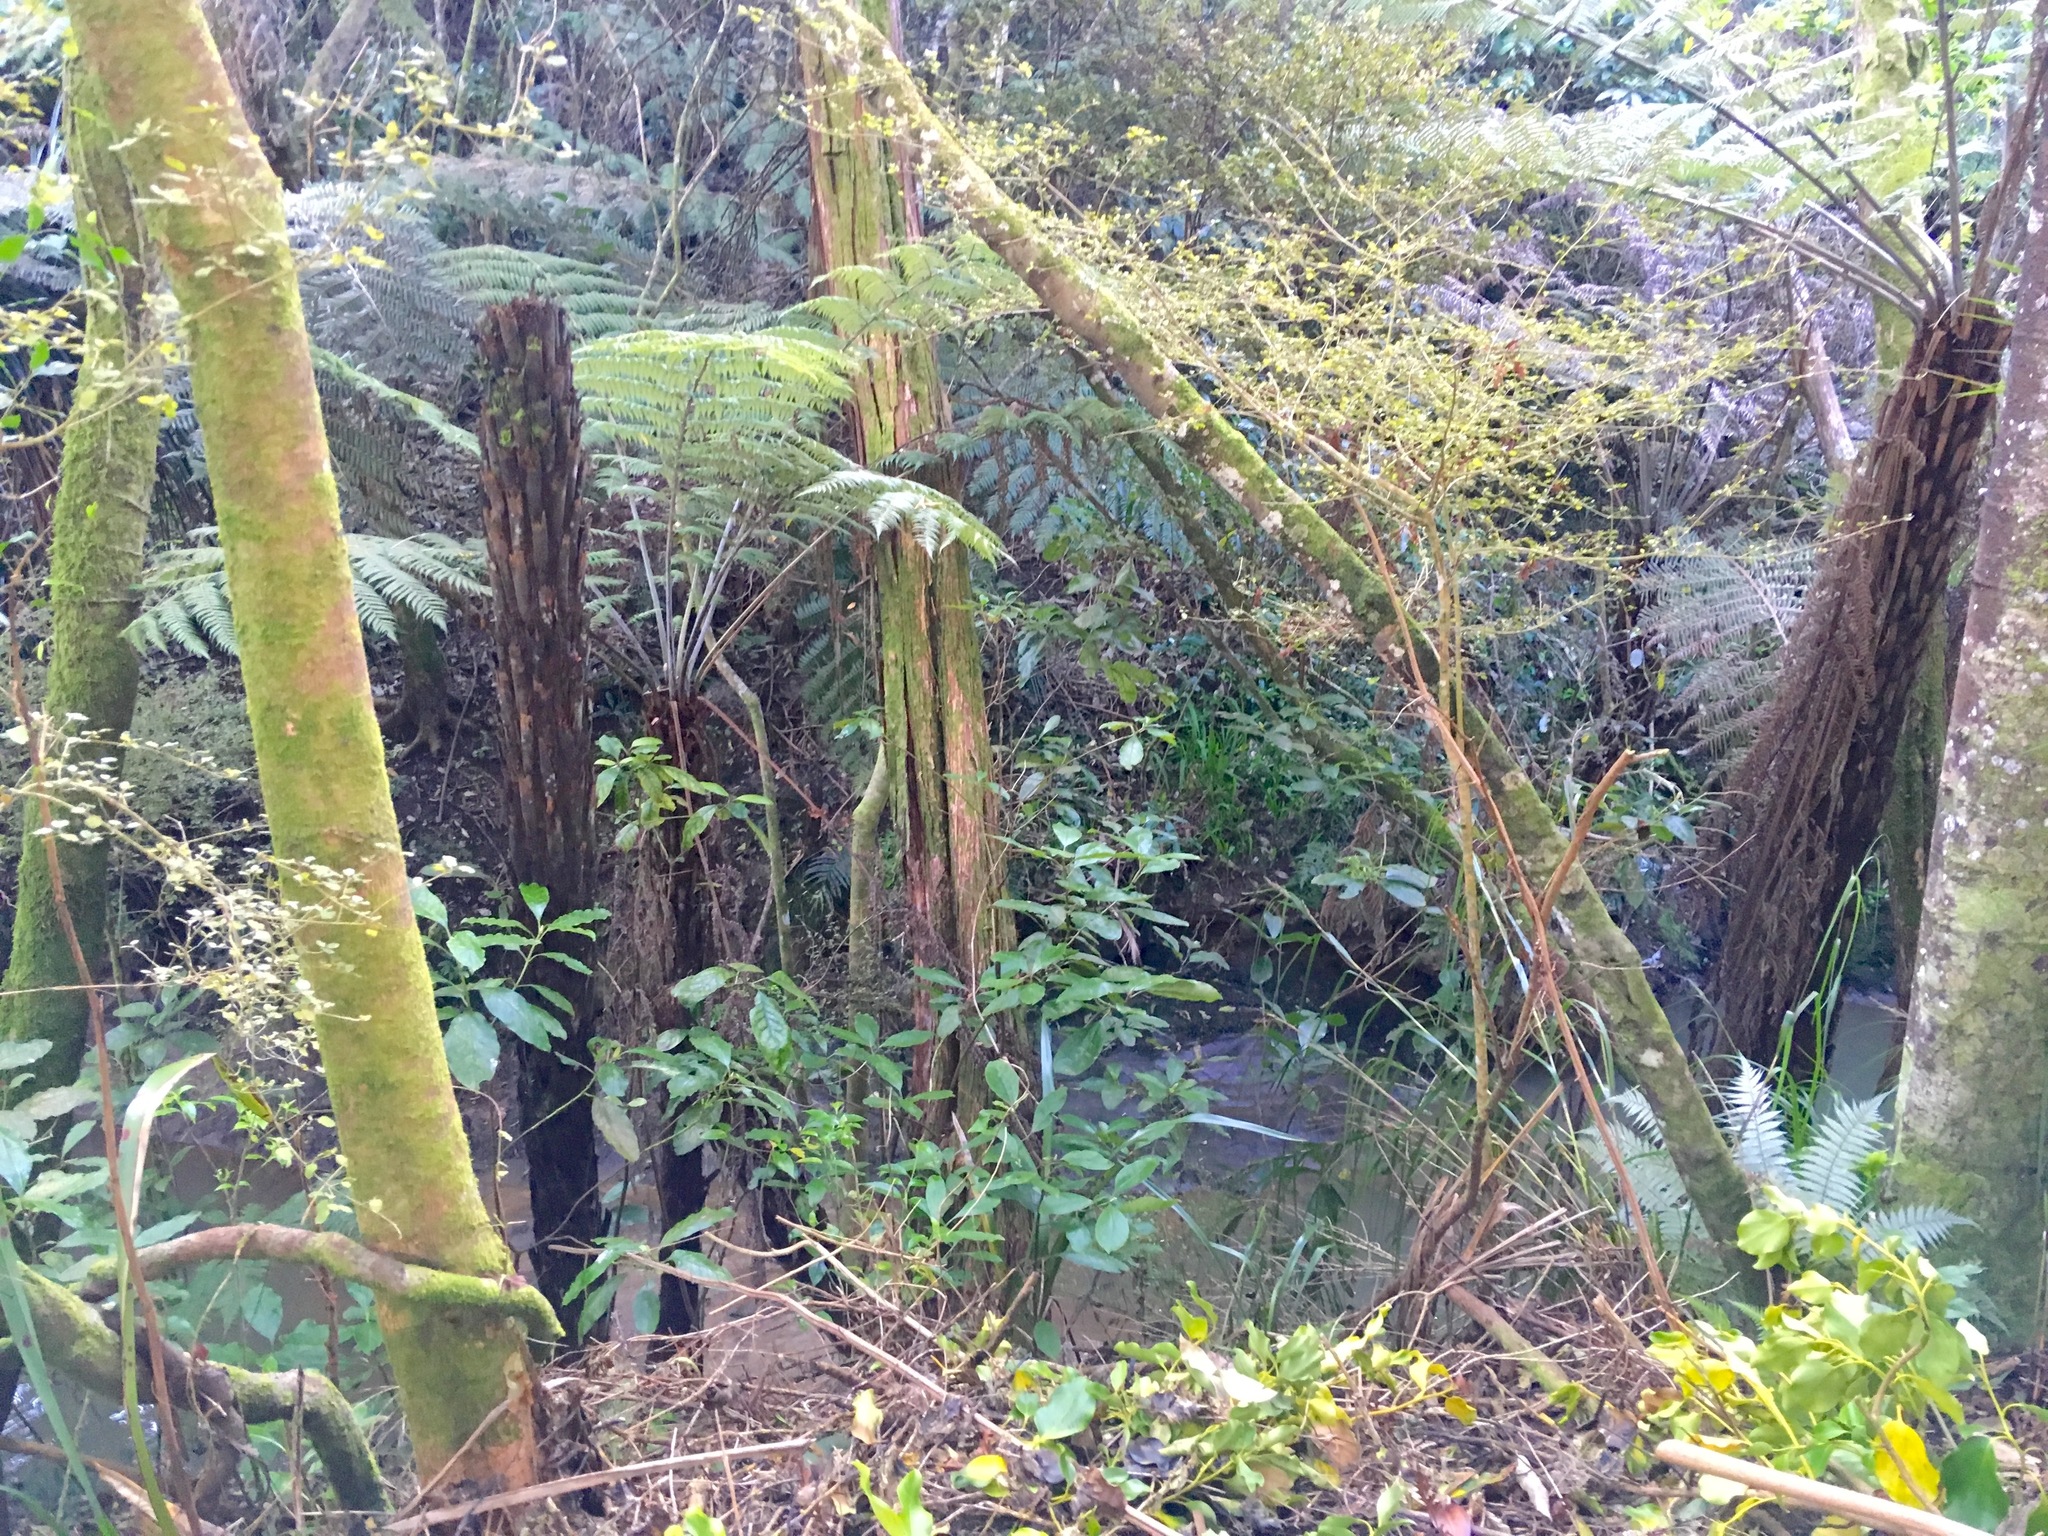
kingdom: Plantae
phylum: Tracheophyta
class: Polypodiopsida
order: Cyatheales
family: Cyatheaceae
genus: Alsophila
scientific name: Alsophila dealbata
